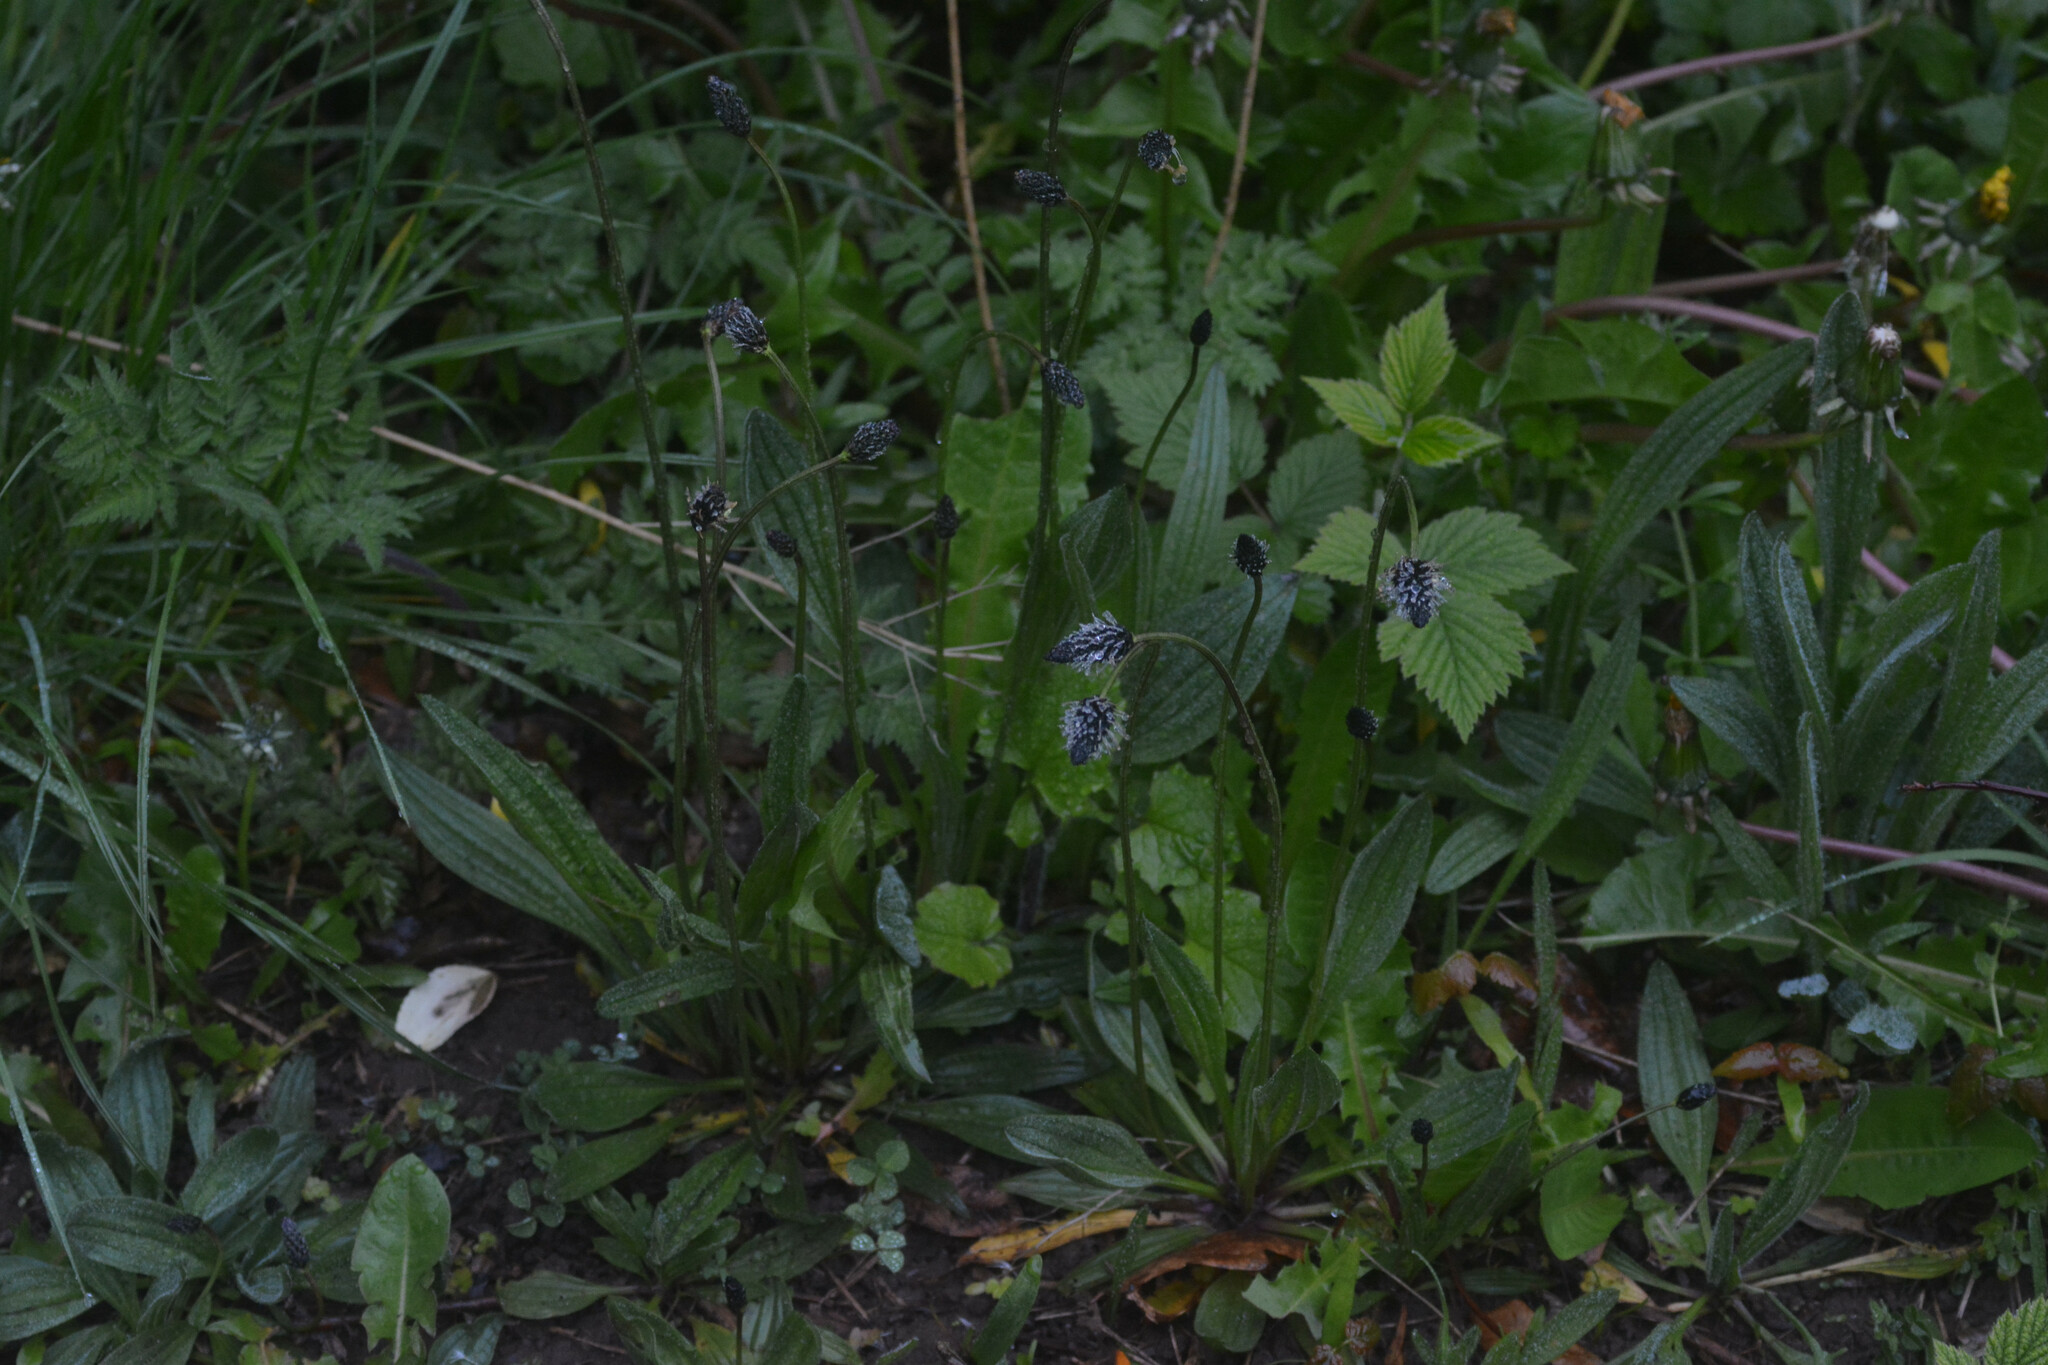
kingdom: Plantae
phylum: Tracheophyta
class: Magnoliopsida
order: Lamiales
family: Plantaginaceae
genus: Plantago
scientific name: Plantago lanceolata
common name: Ribwort plantain
